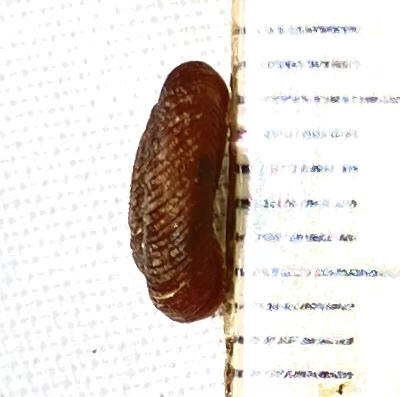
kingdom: Animalia
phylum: Mollusca
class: Gastropoda
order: Stylommatophora
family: Discidae
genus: Discus
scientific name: Discus patulus
